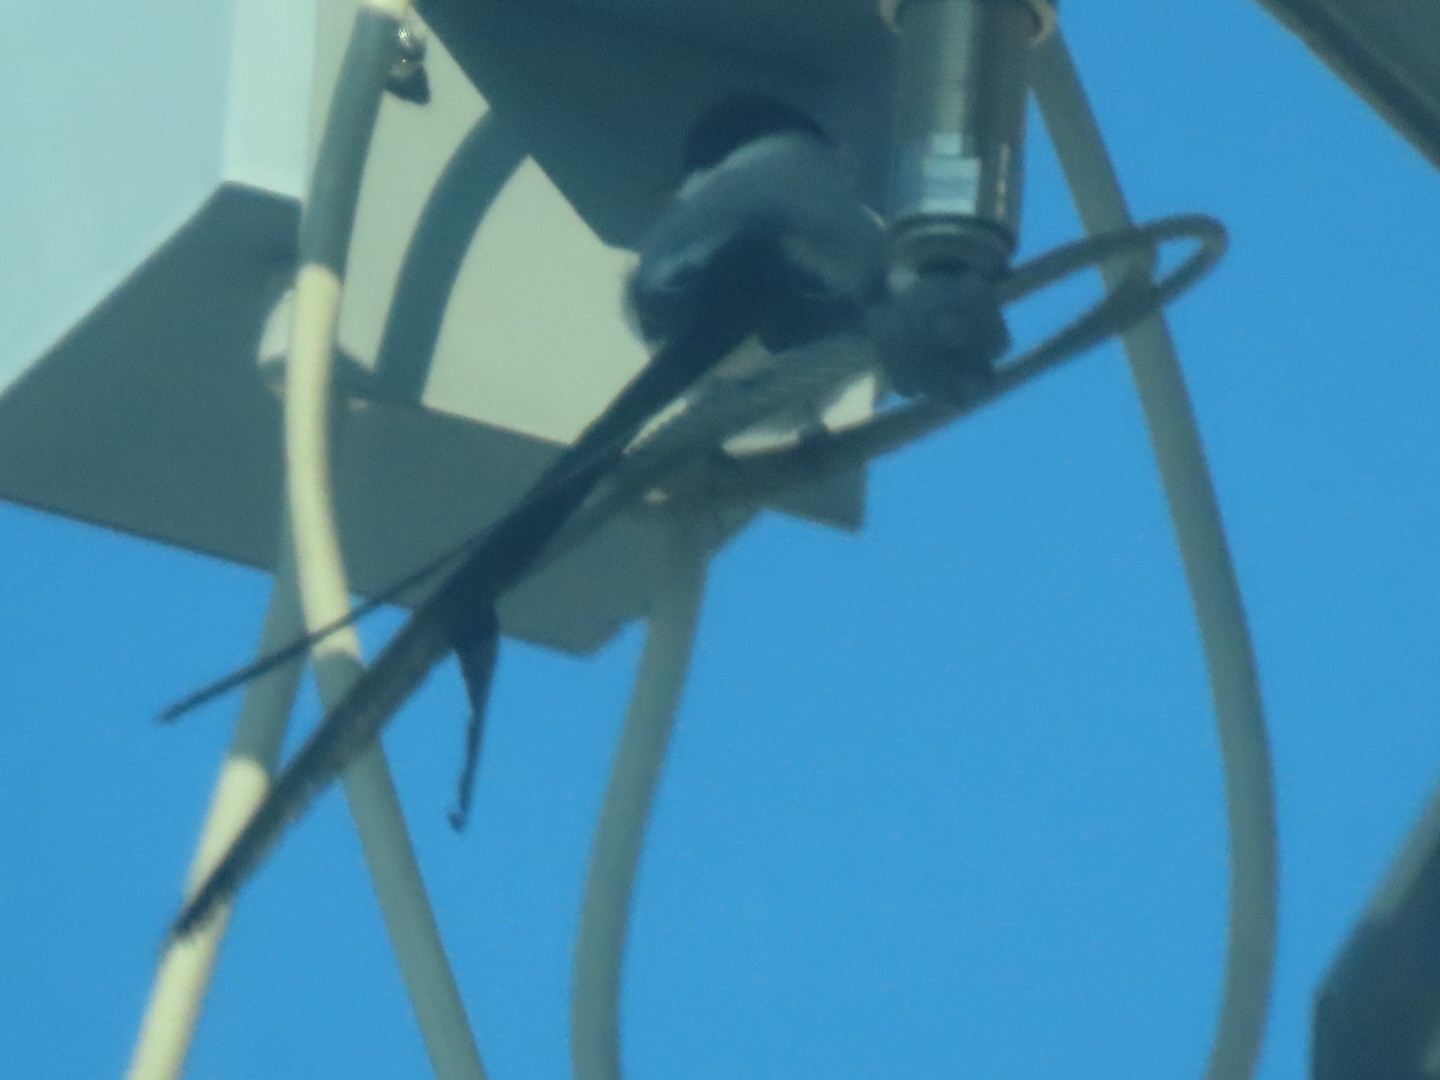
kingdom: Animalia
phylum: Chordata
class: Aves
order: Passeriformes
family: Tyrannidae
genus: Tyrannus
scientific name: Tyrannus savana
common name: Fork-tailed flycatcher
